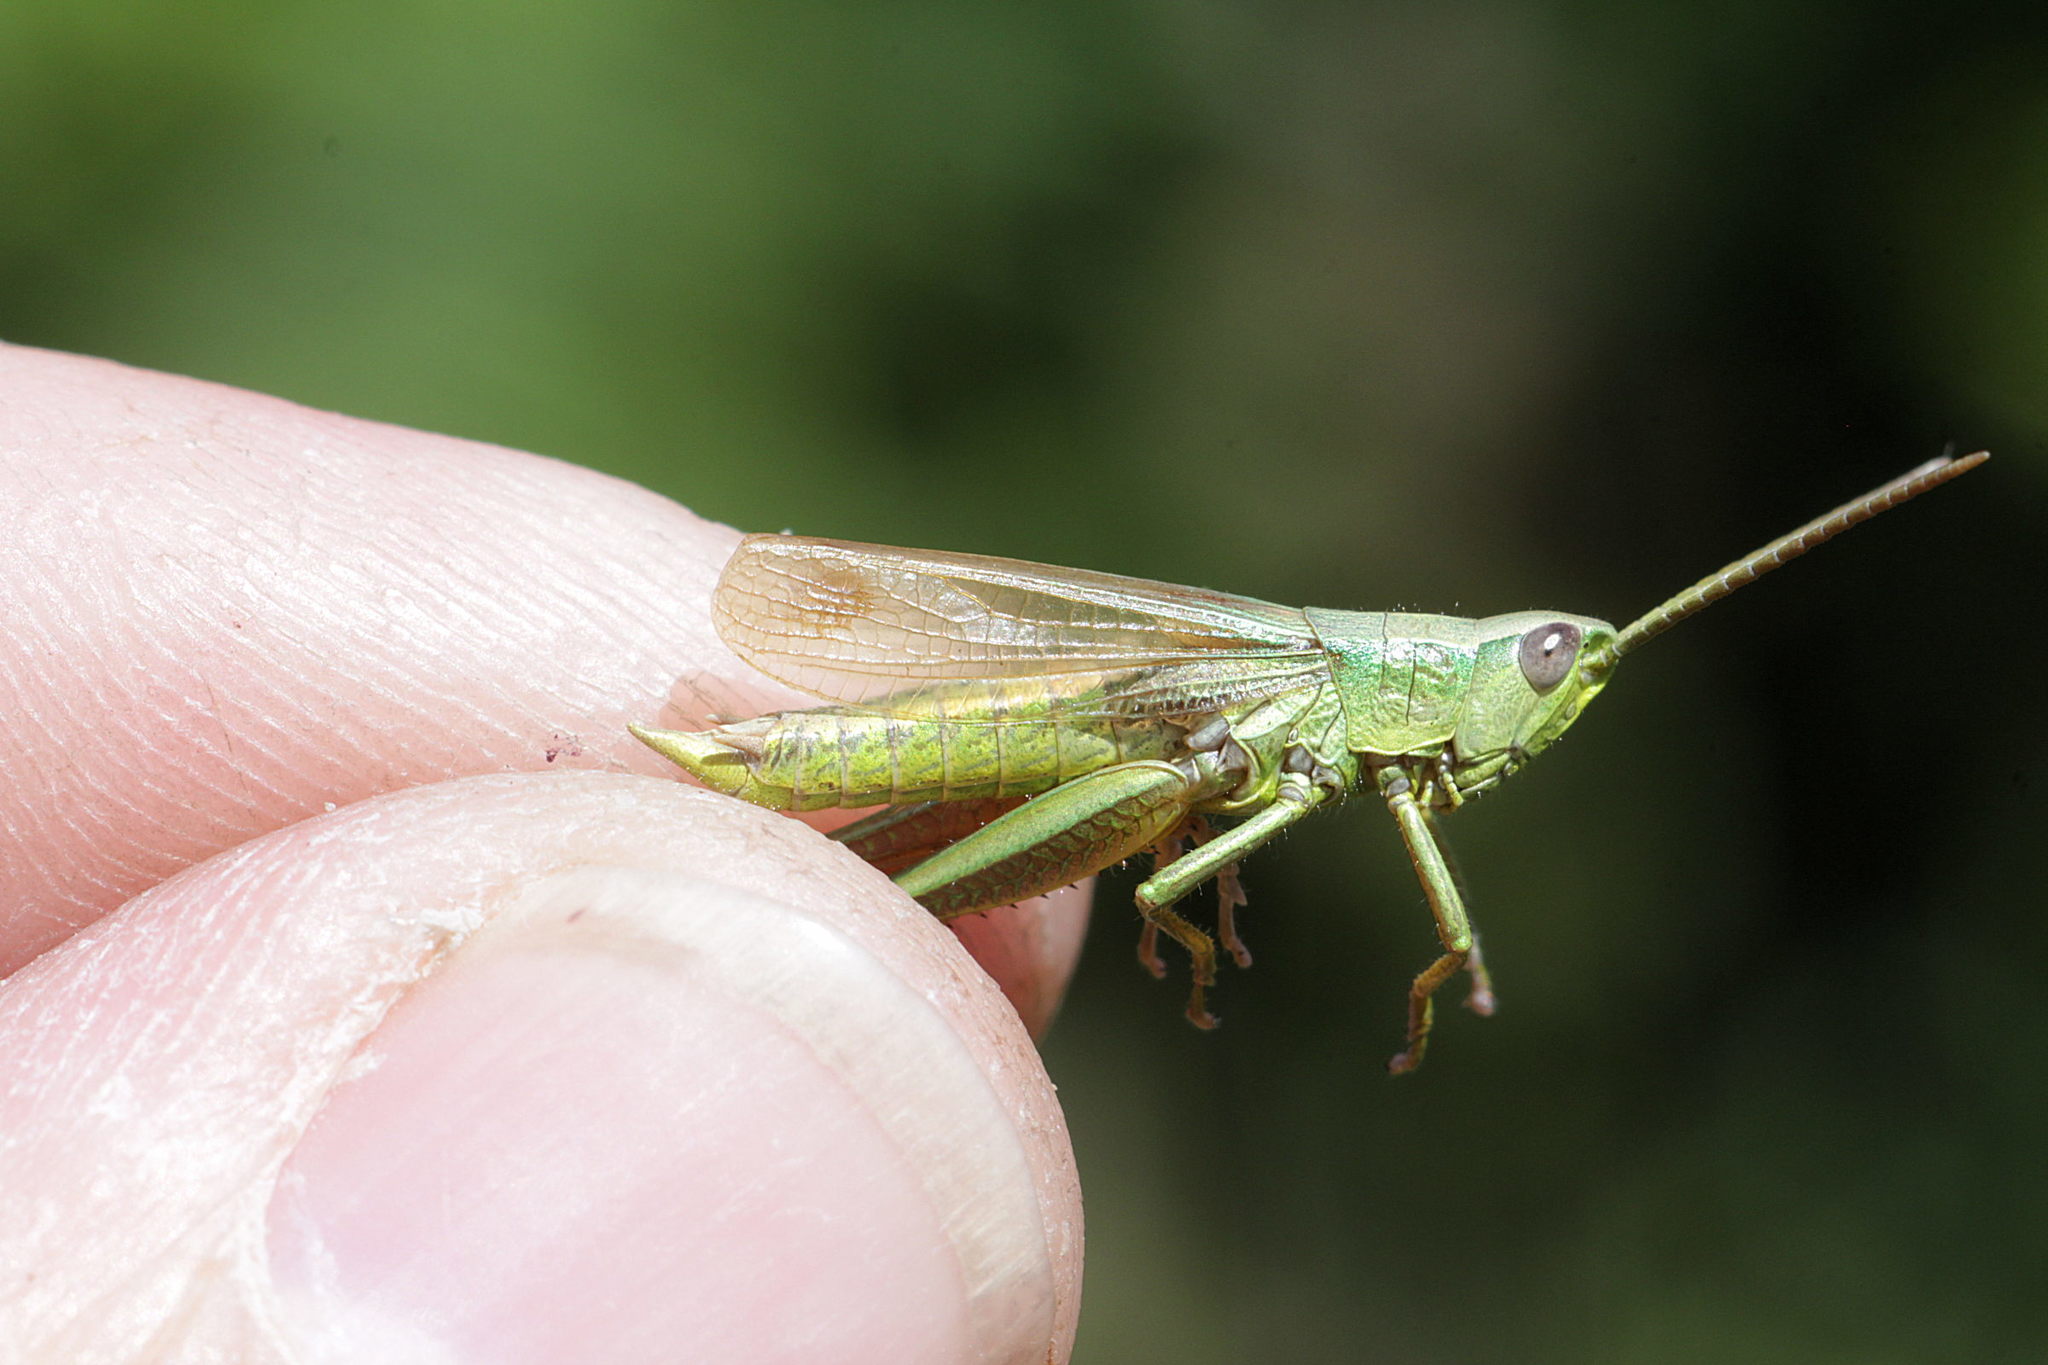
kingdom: Animalia
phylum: Arthropoda
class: Insecta
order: Orthoptera
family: Acrididae
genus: Chrysochraon
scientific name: Chrysochraon dispar
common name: Large gold grasshopper
